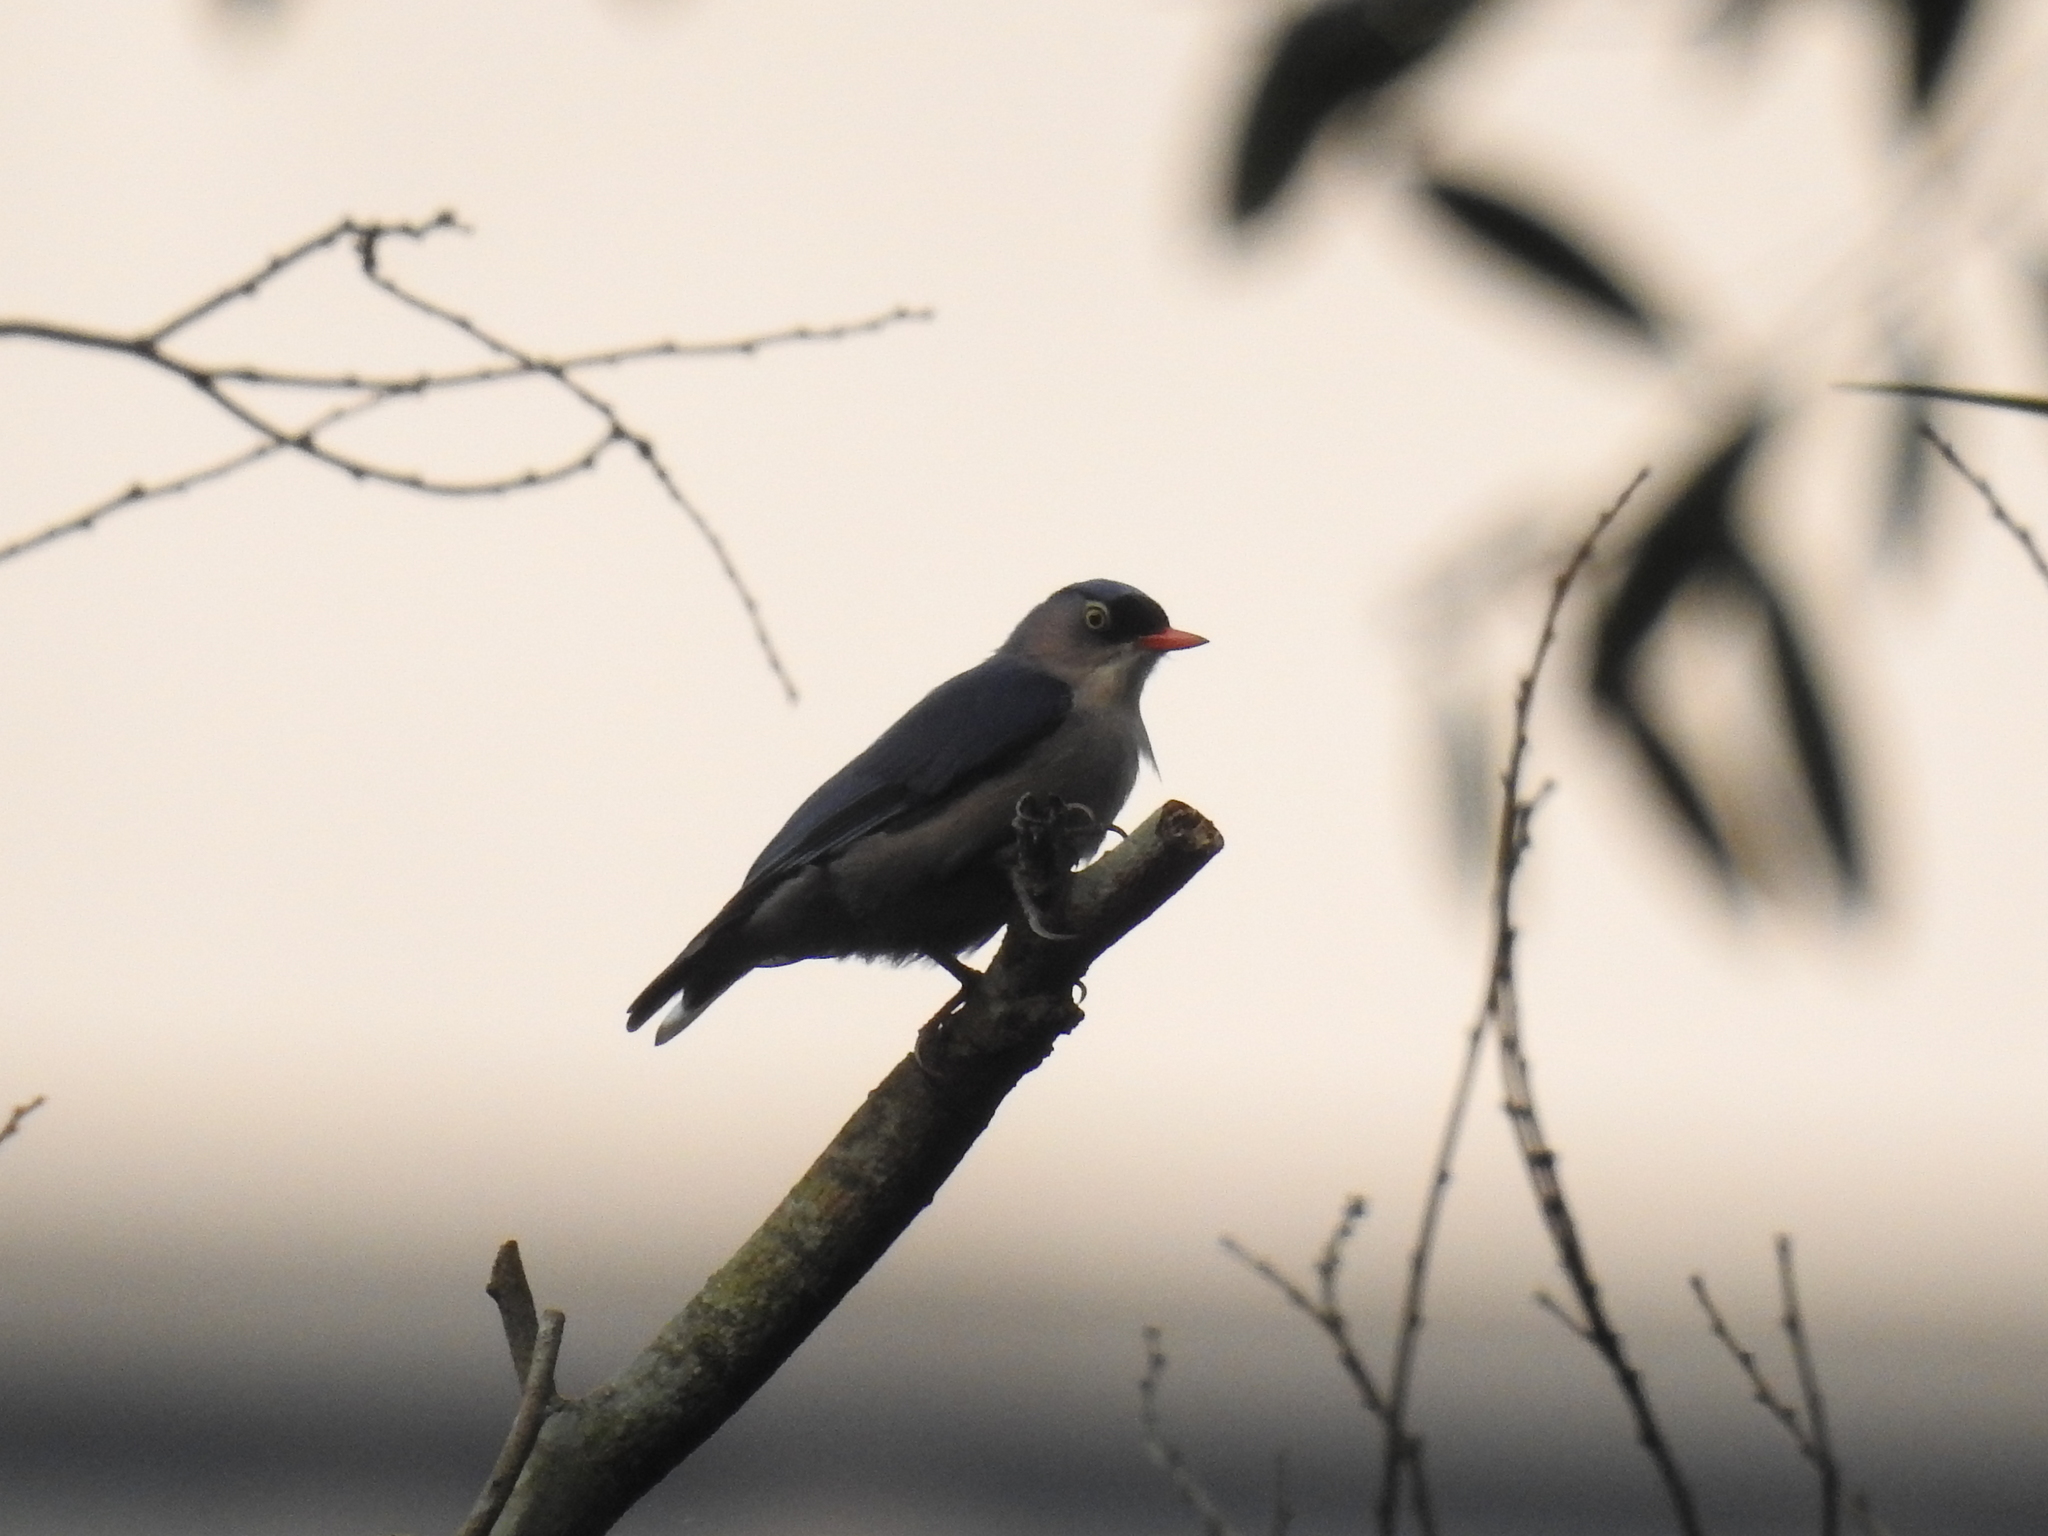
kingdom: Animalia
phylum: Chordata
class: Aves
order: Passeriformes
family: Sittidae
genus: Sitta
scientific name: Sitta frontalis
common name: Velvet-fronted nuthatch
